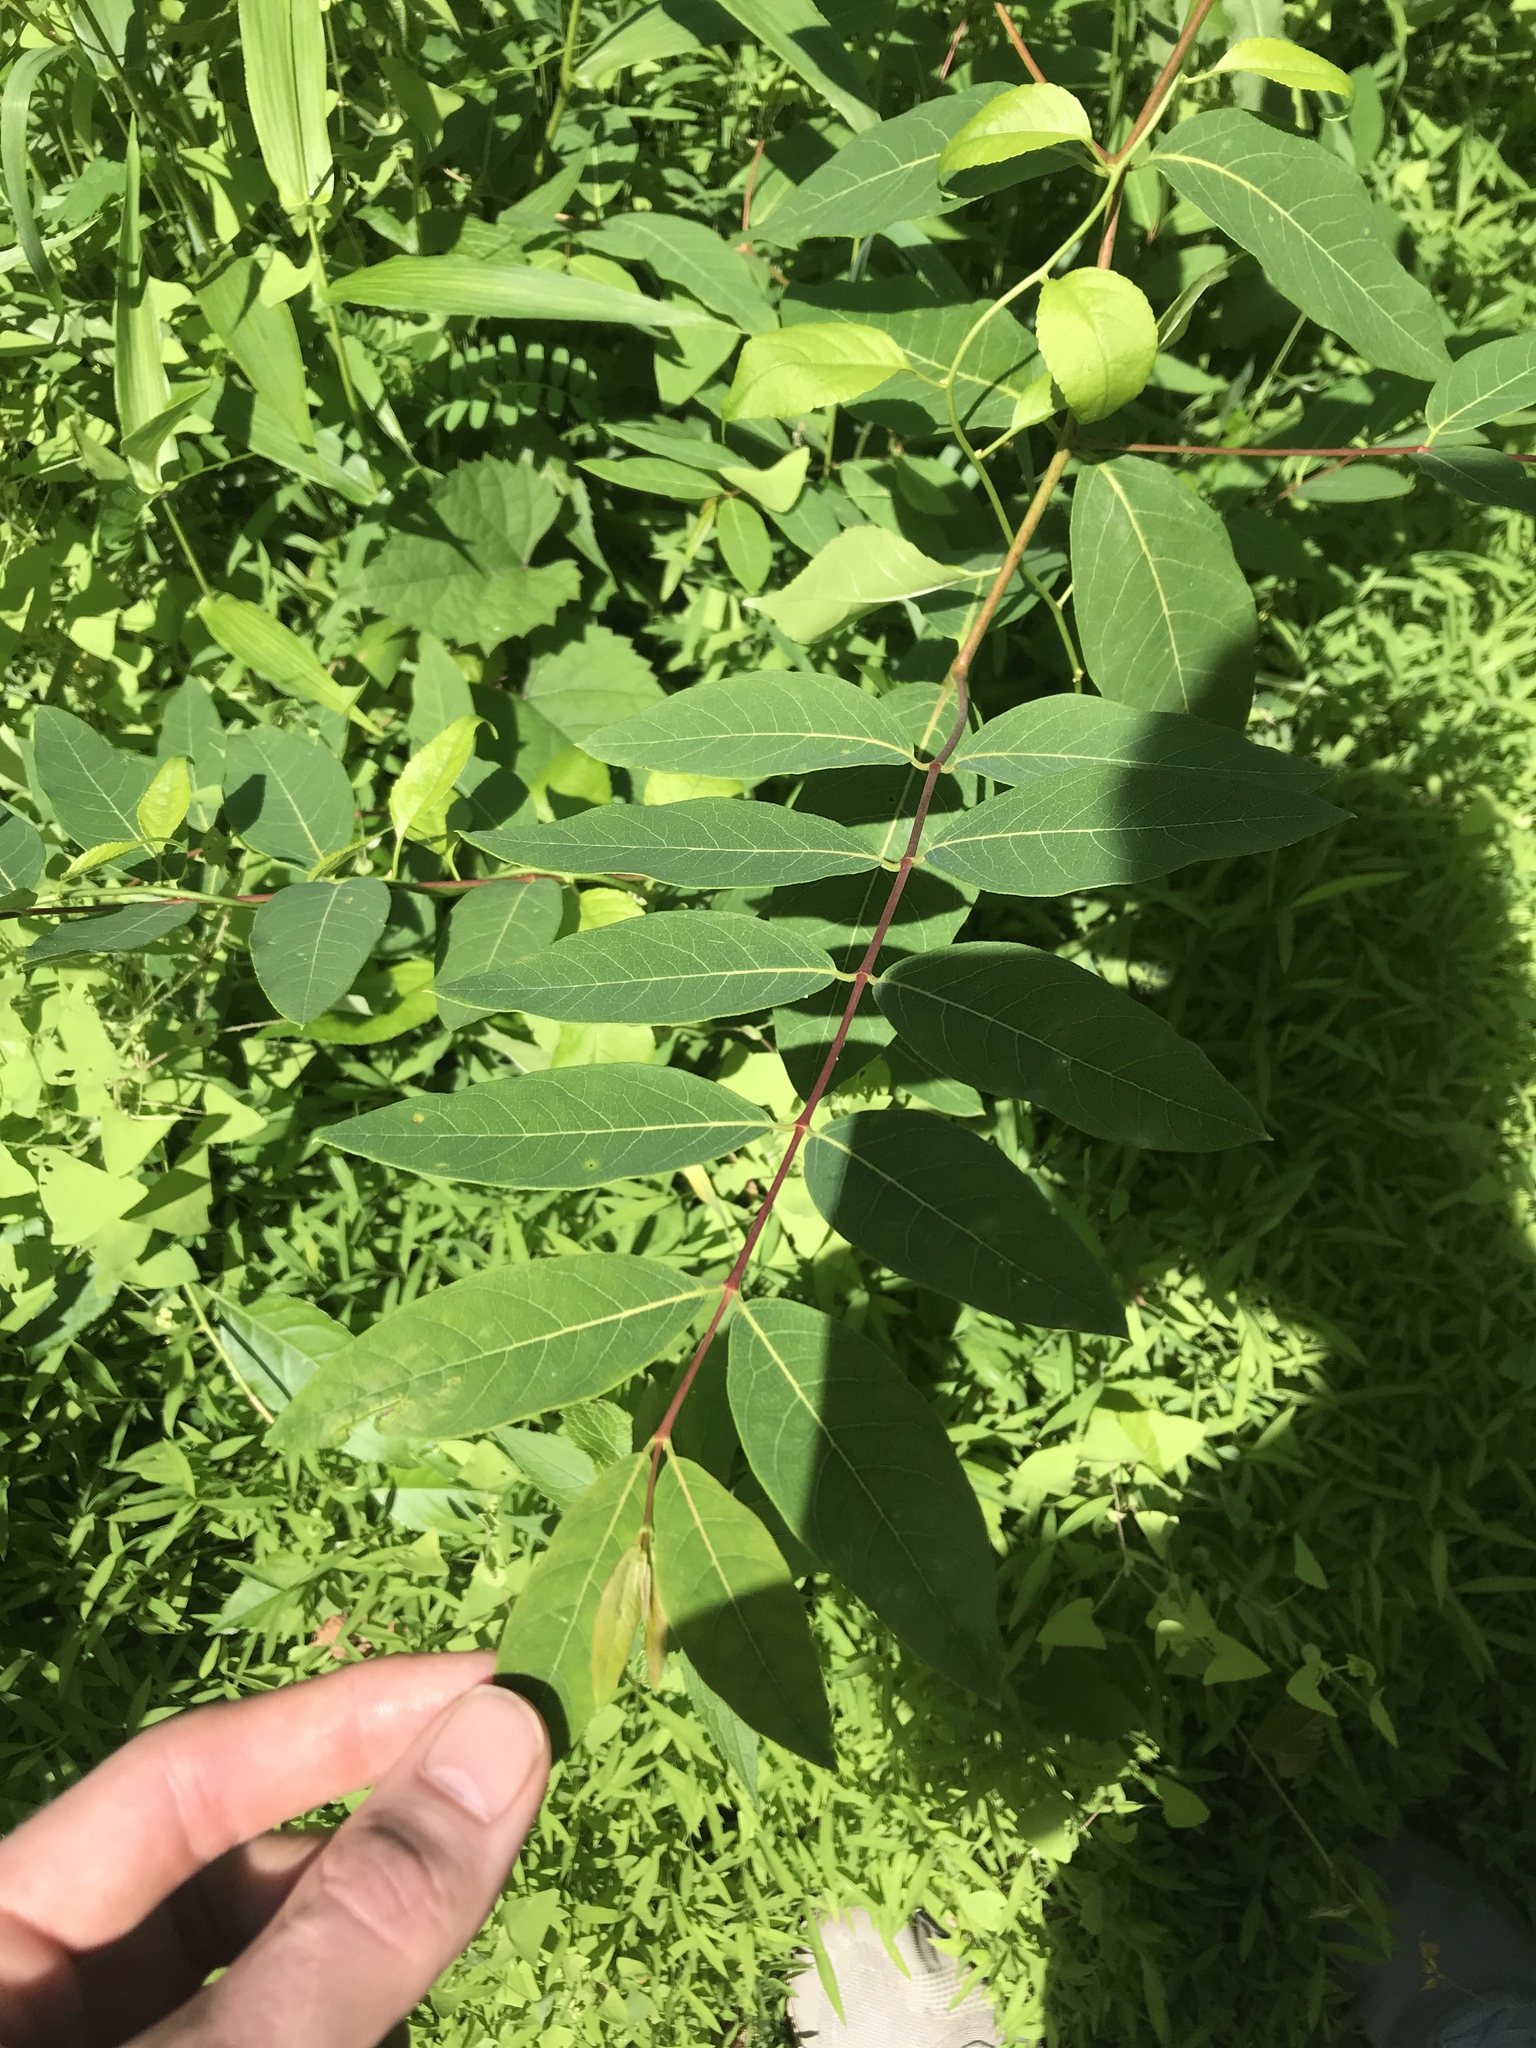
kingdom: Plantae
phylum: Tracheophyta
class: Magnoliopsida
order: Gentianales
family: Apocynaceae
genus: Apocynum
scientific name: Apocynum cannabinum
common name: Hemp dogbane
